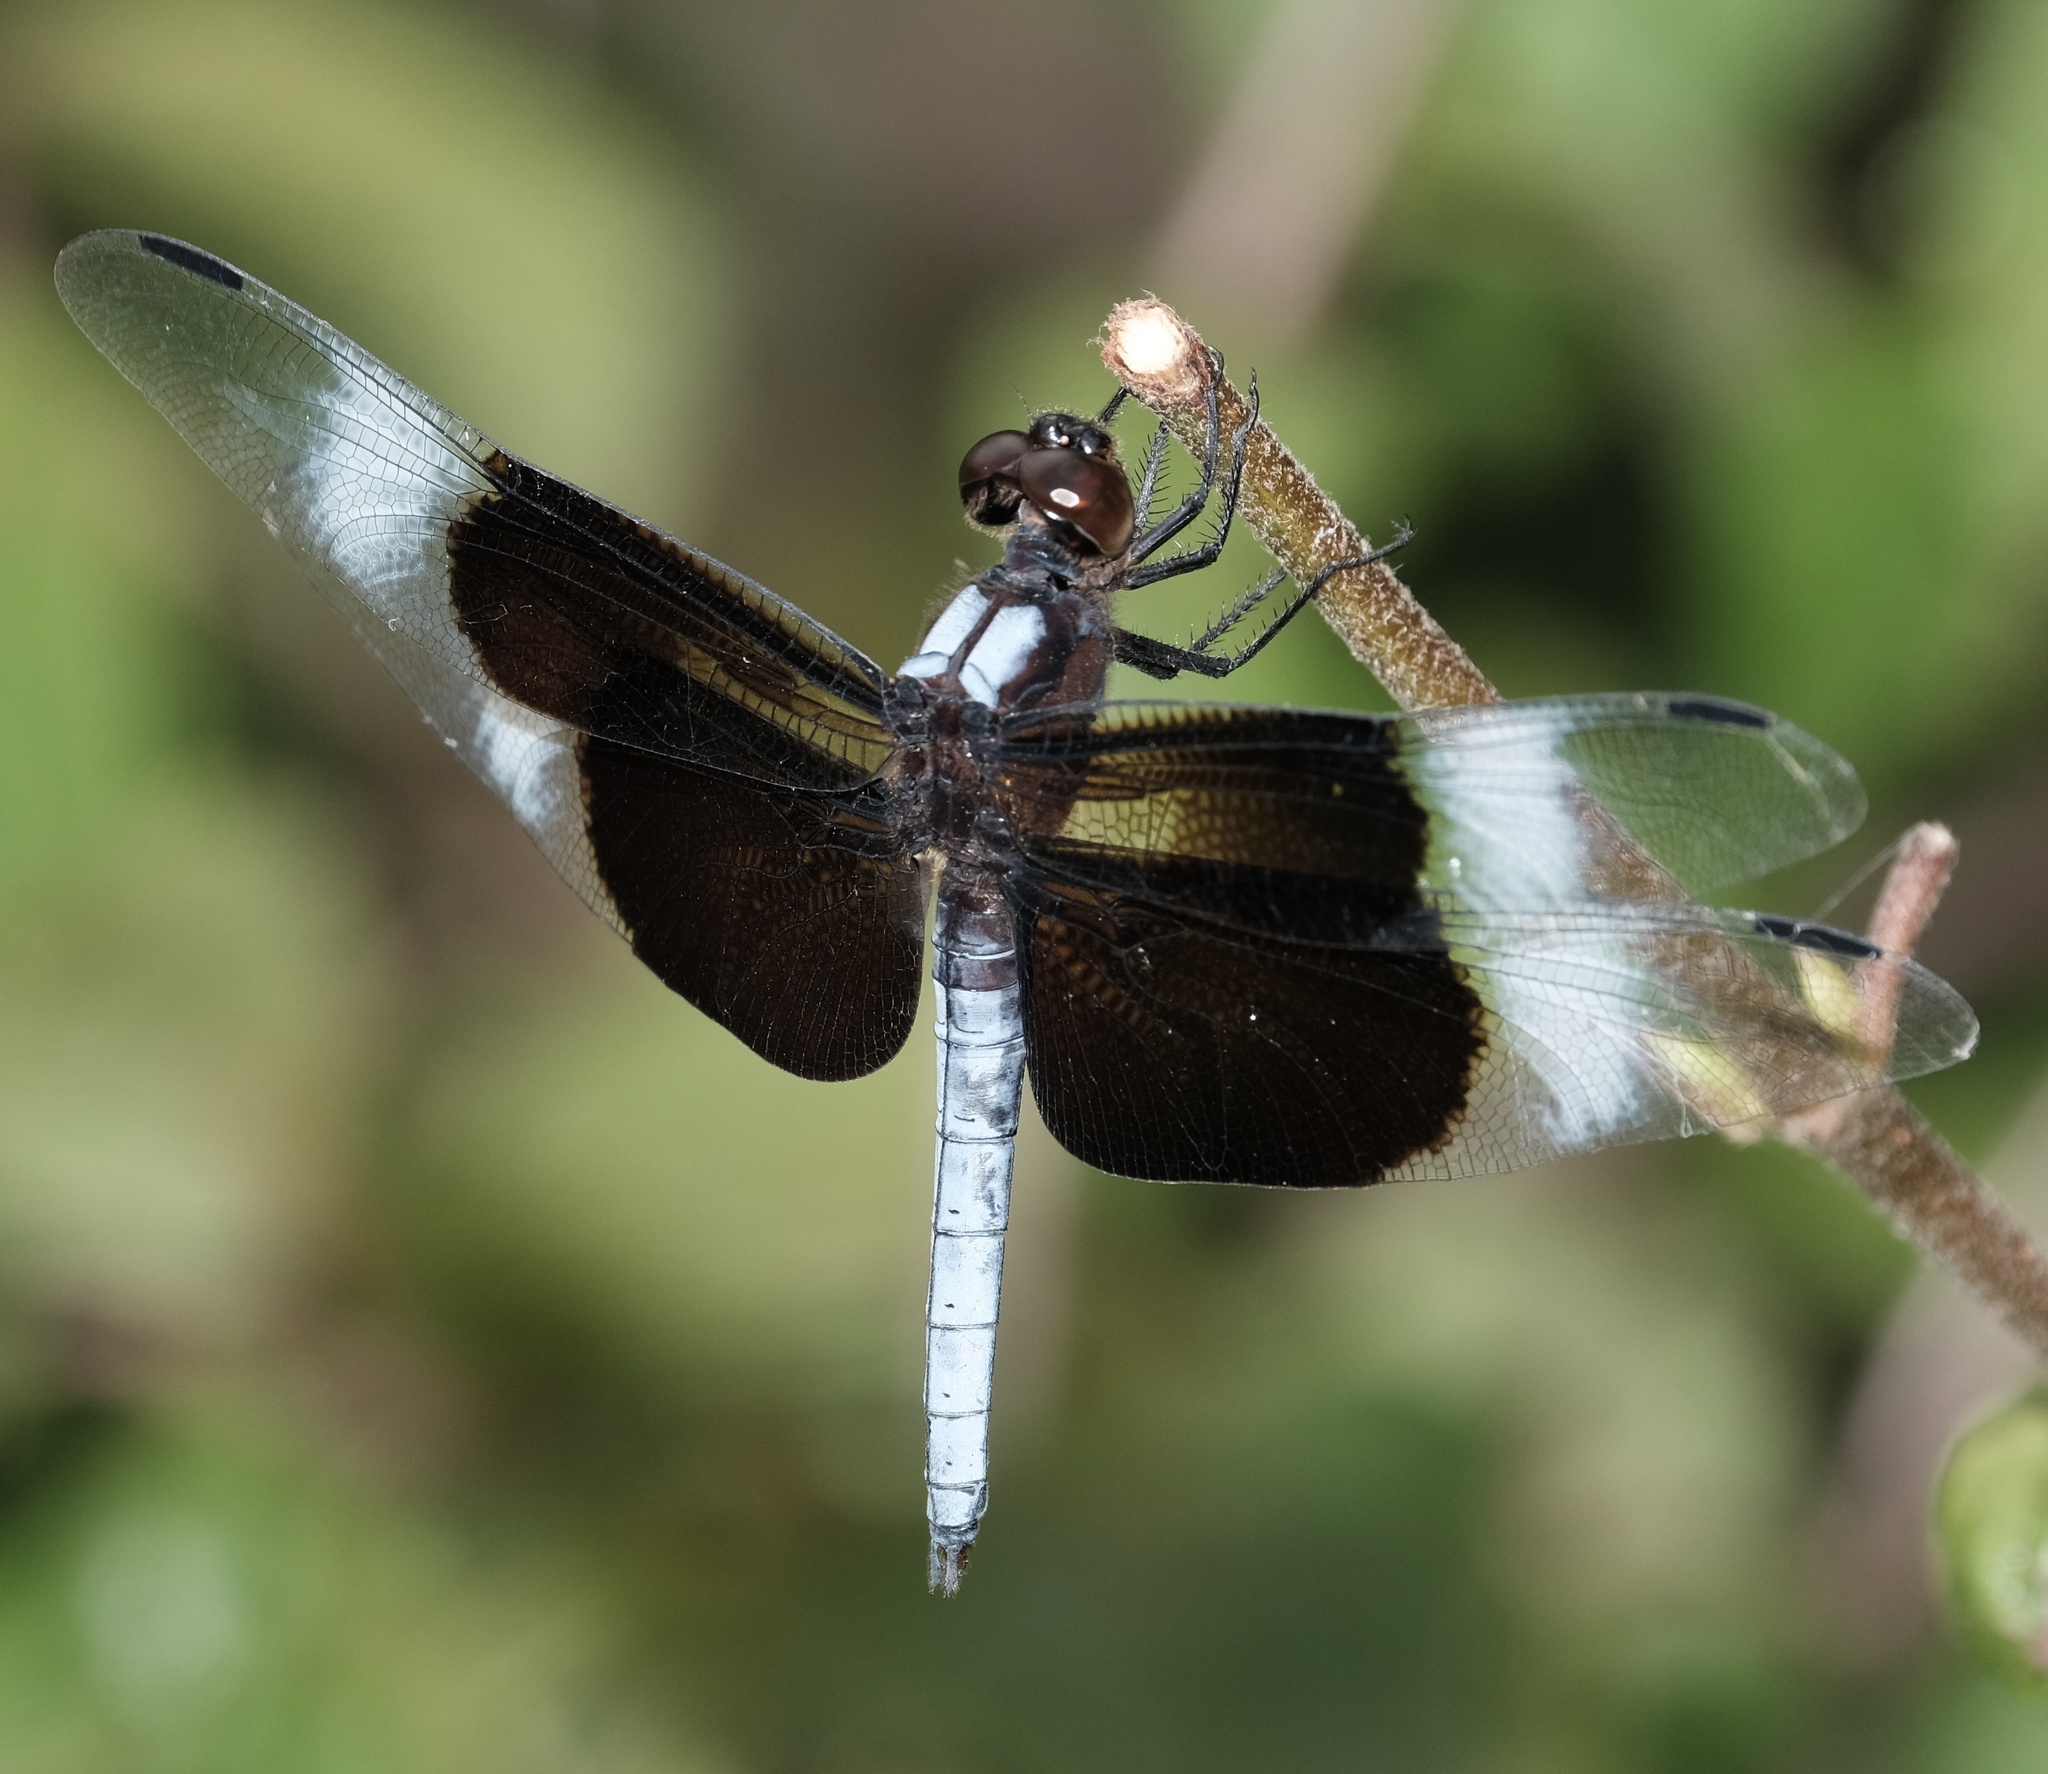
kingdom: Animalia
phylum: Arthropoda
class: Insecta
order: Odonata
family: Libellulidae
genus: Libellula
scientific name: Libellula luctuosa
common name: Widow skimmer
